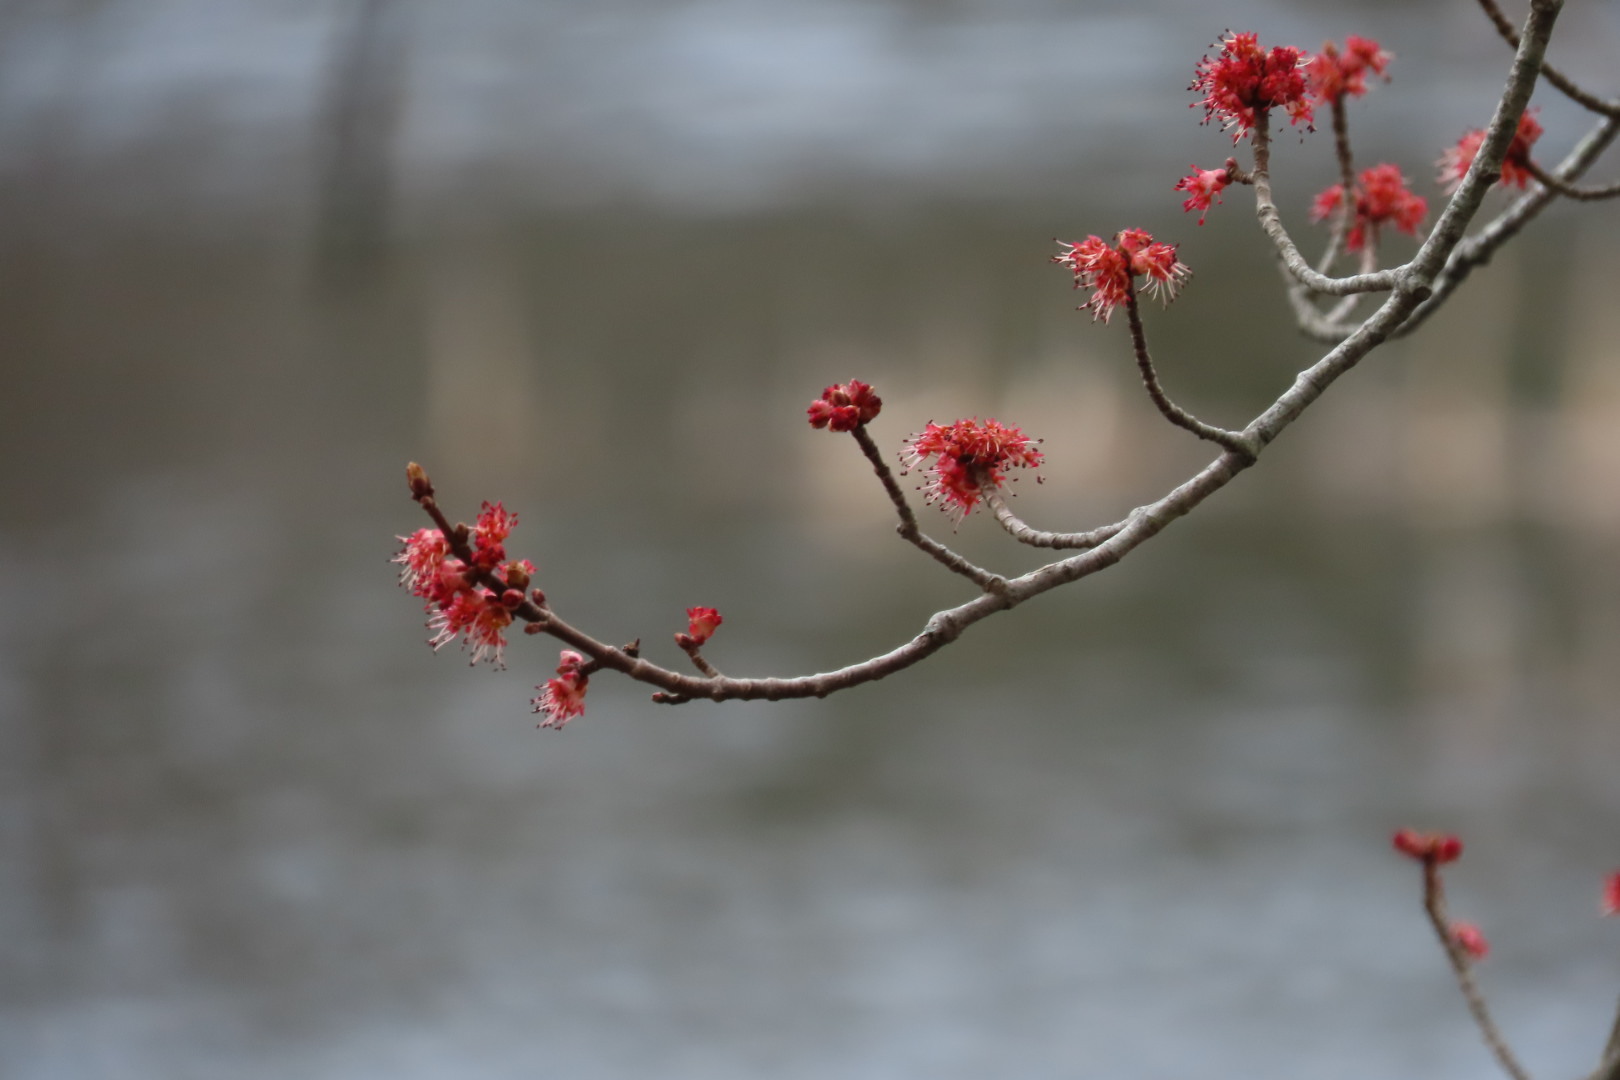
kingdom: Plantae
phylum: Tracheophyta
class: Magnoliopsida
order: Sapindales
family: Sapindaceae
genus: Acer
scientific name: Acer rubrum
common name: Red maple
